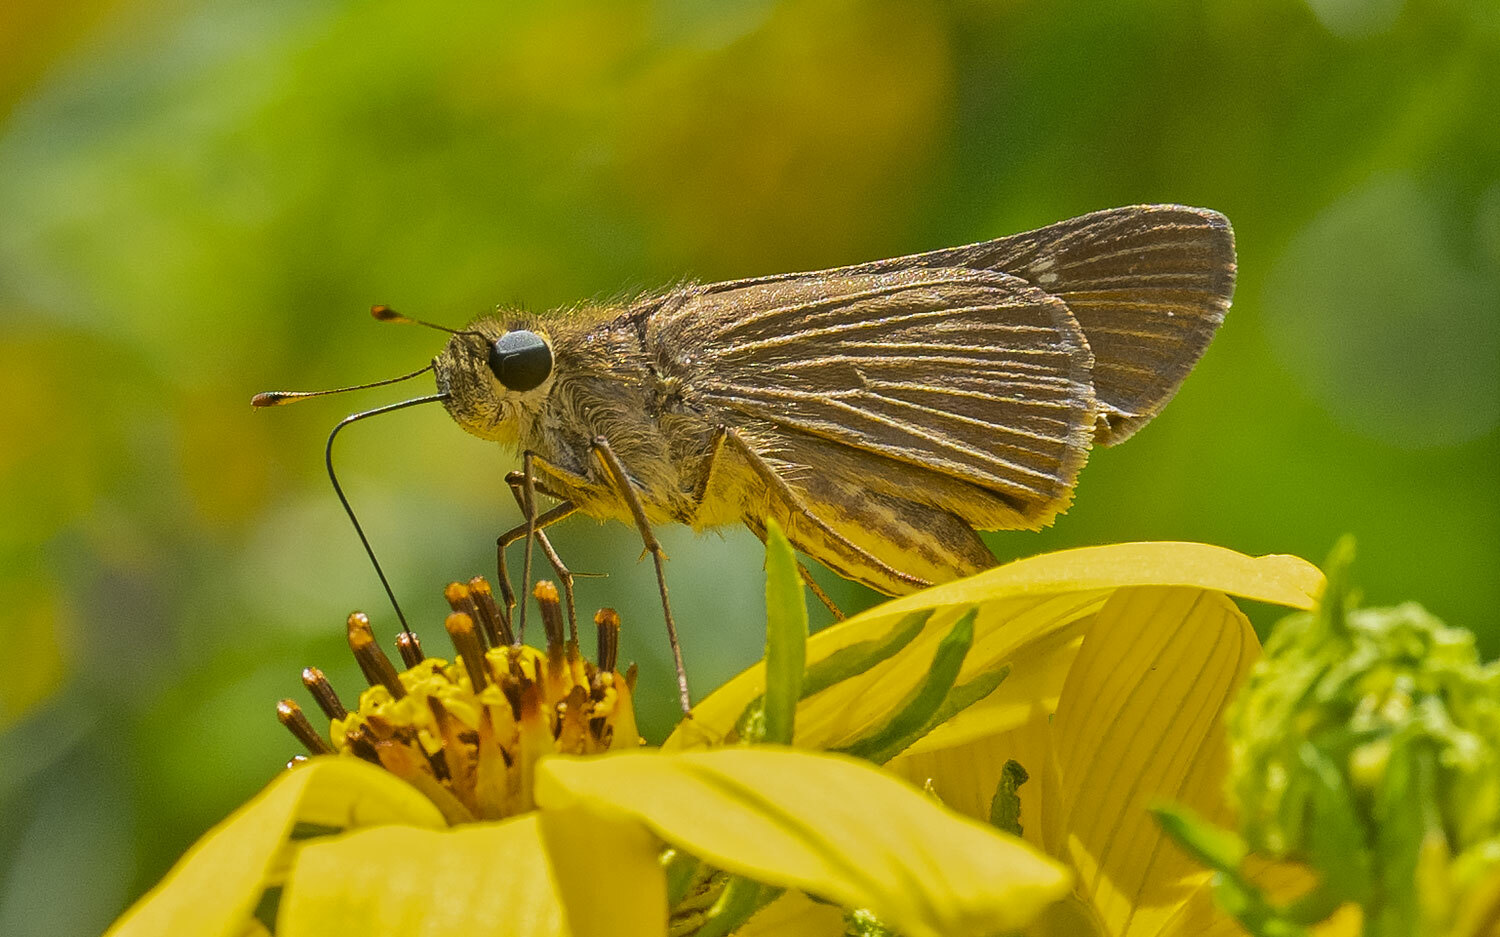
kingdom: Animalia
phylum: Arthropoda
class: Insecta
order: Lepidoptera
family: Hesperiidae
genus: Panoquina
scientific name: Panoquina ocola
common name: Ocola skipper
